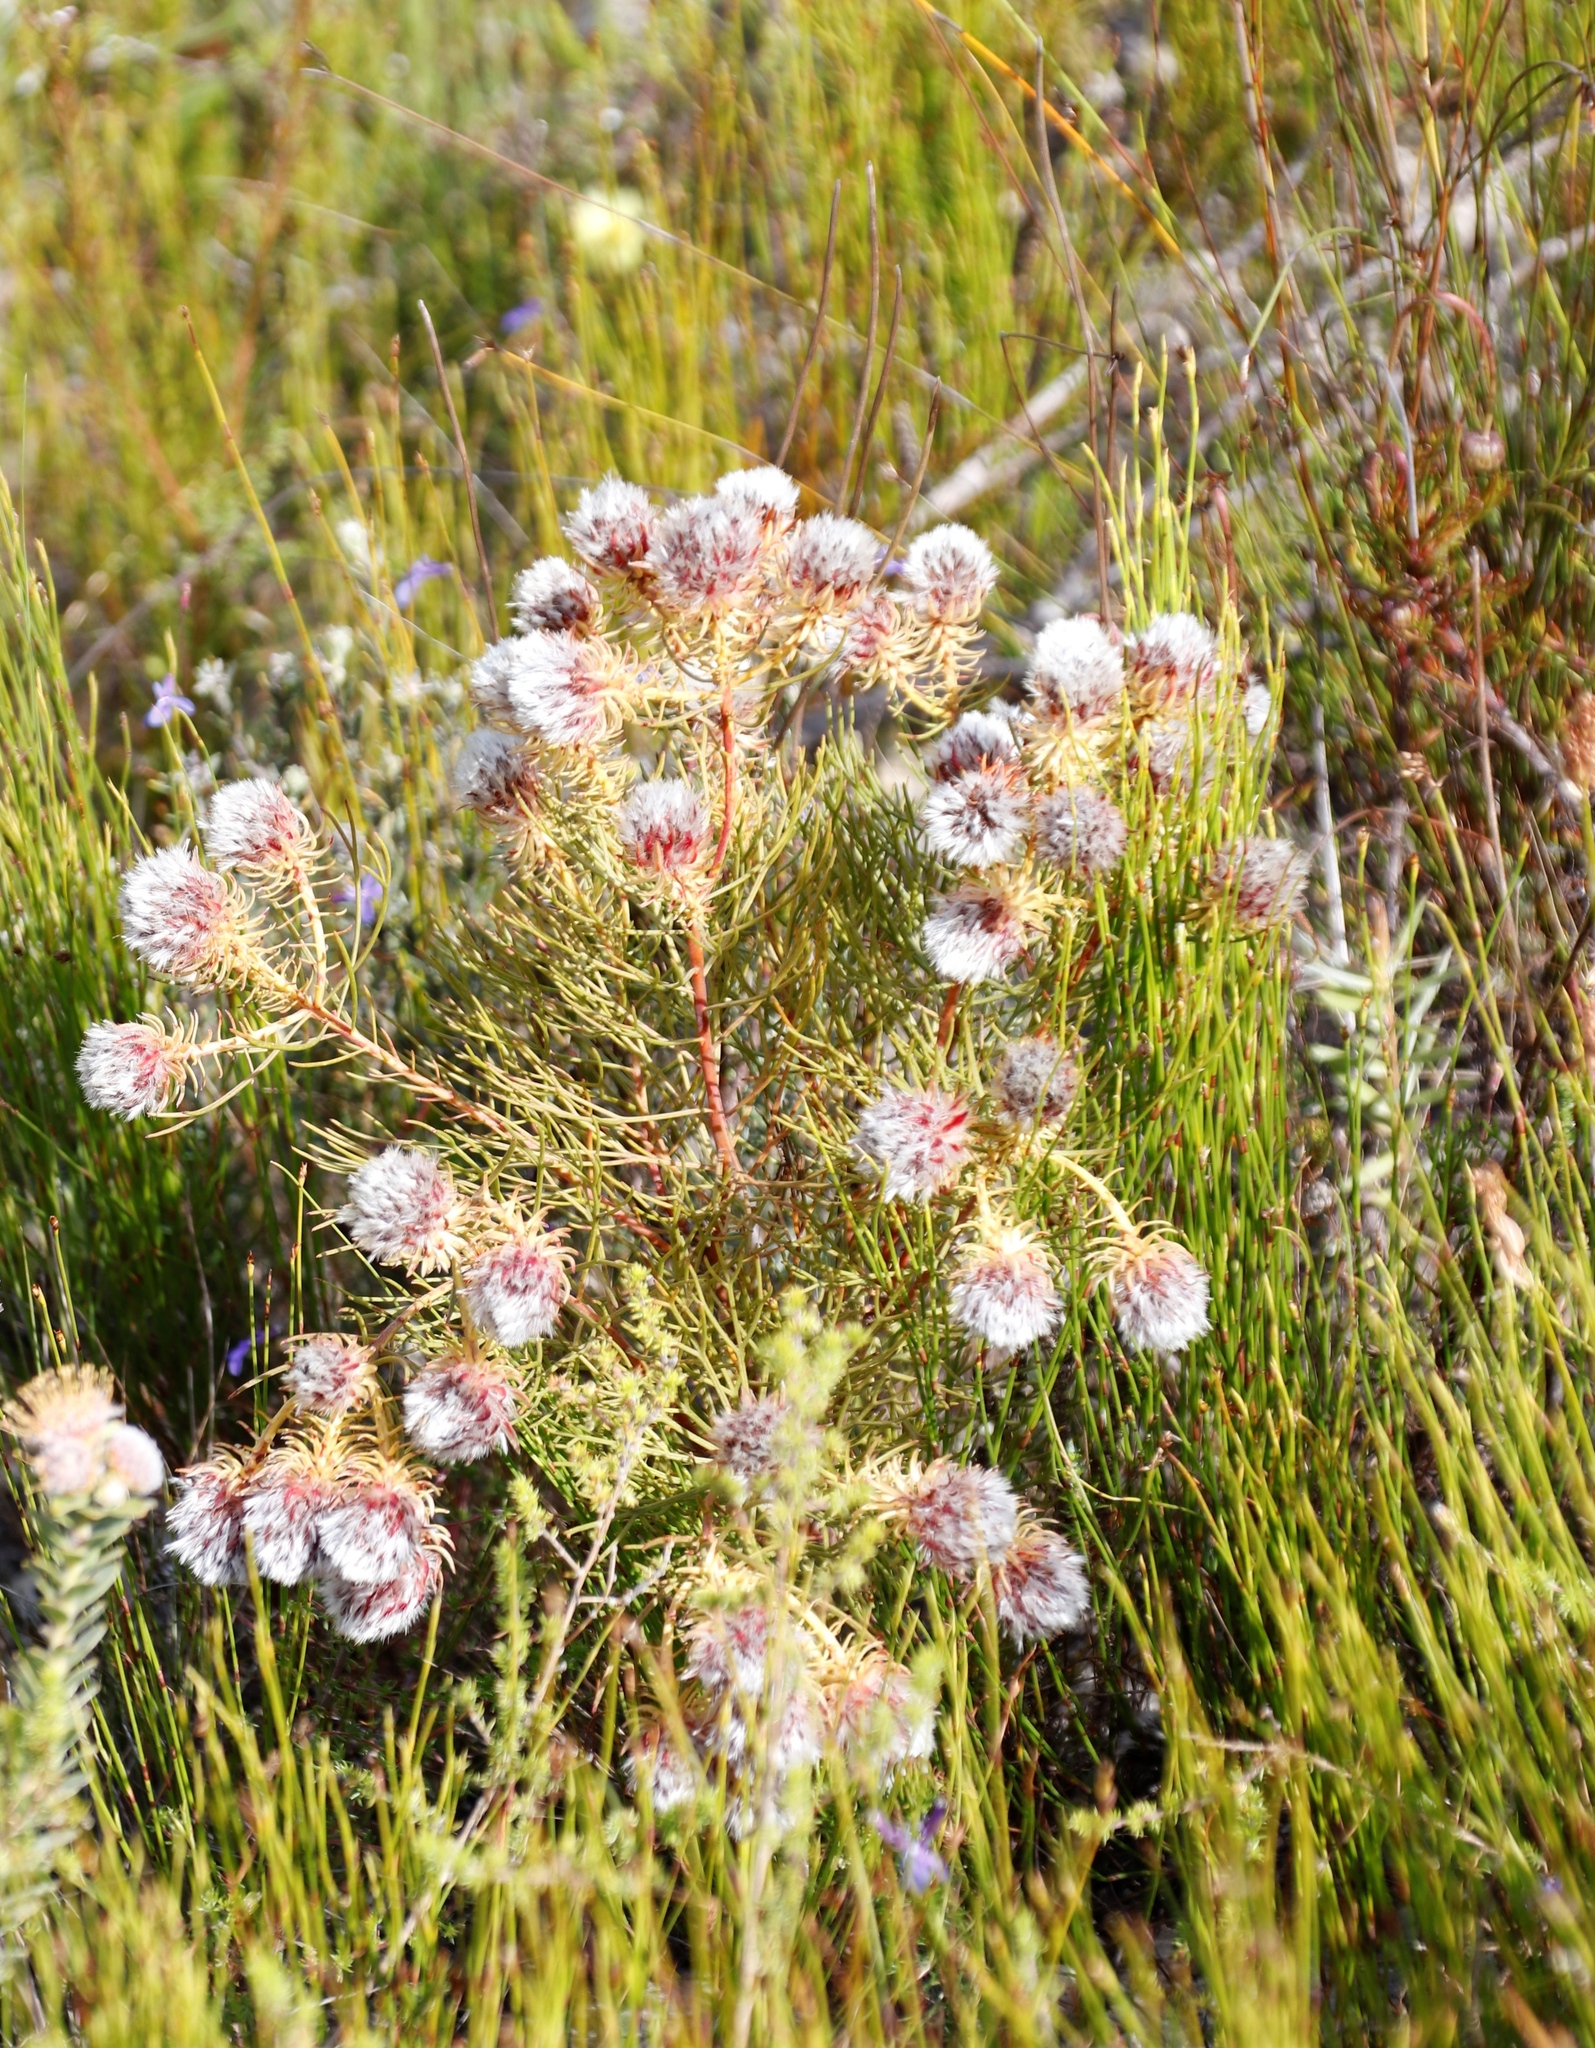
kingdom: Plantae
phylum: Tracheophyta
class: Magnoliopsida
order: Proteales
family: Proteaceae
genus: Serruria
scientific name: Serruria phylicoides
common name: Bearded spiderhead
